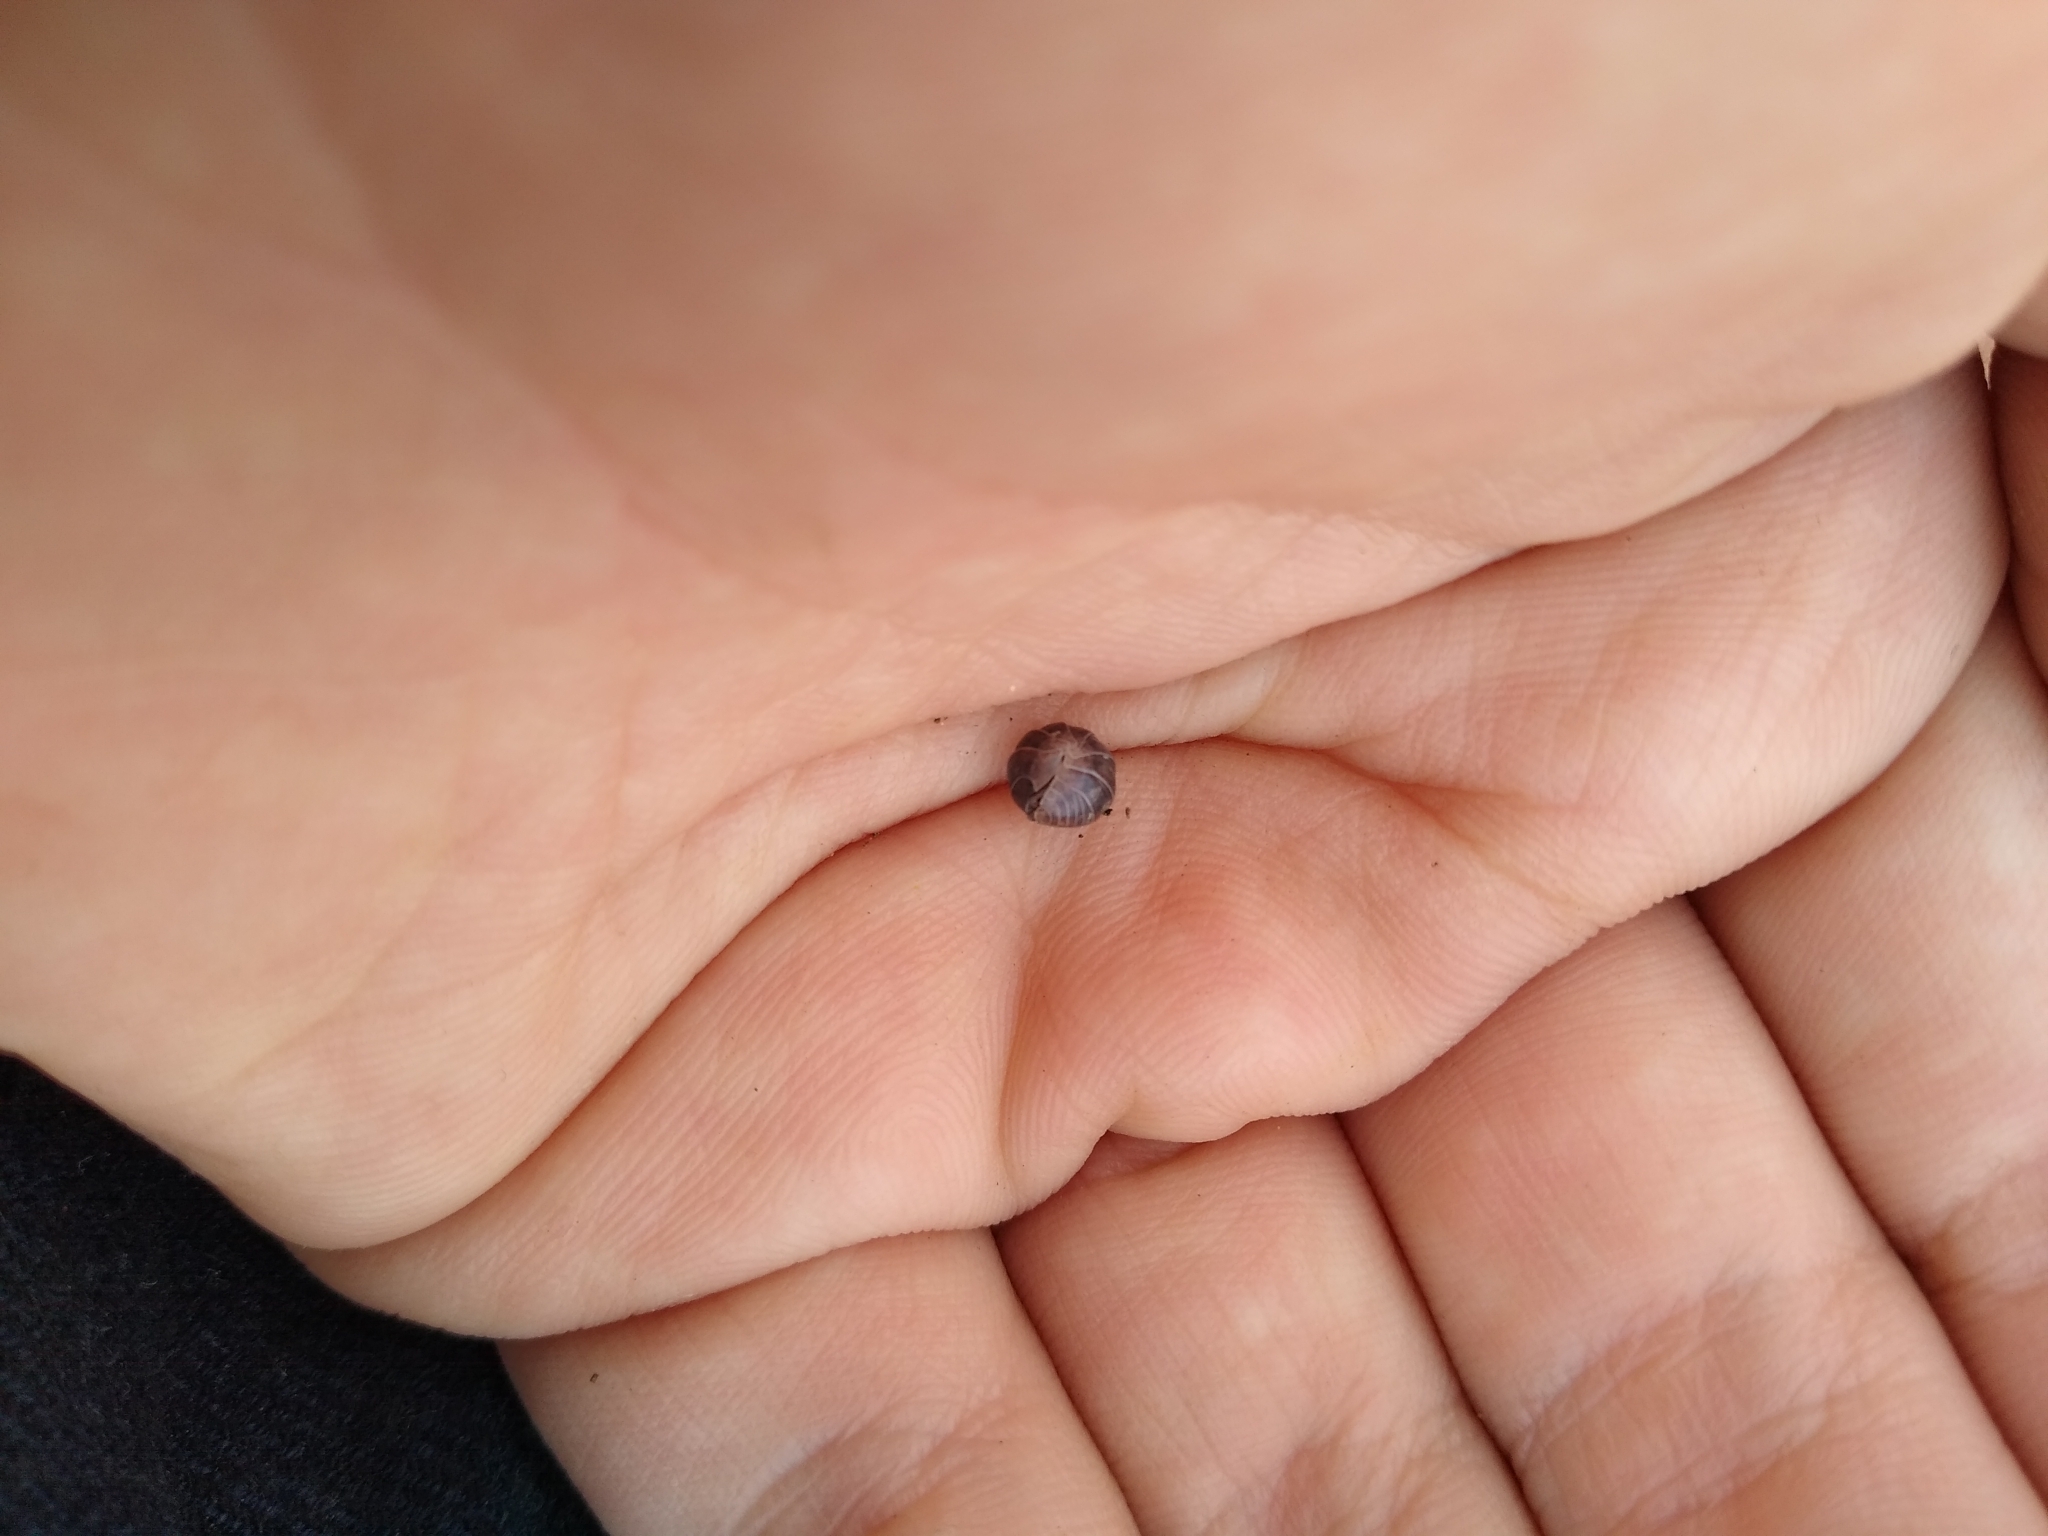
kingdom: Animalia
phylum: Arthropoda
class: Malacostraca
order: Isopoda
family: Armadillidiidae
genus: Armadillidium
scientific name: Armadillidium vulgare
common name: Common pill woodlouse
